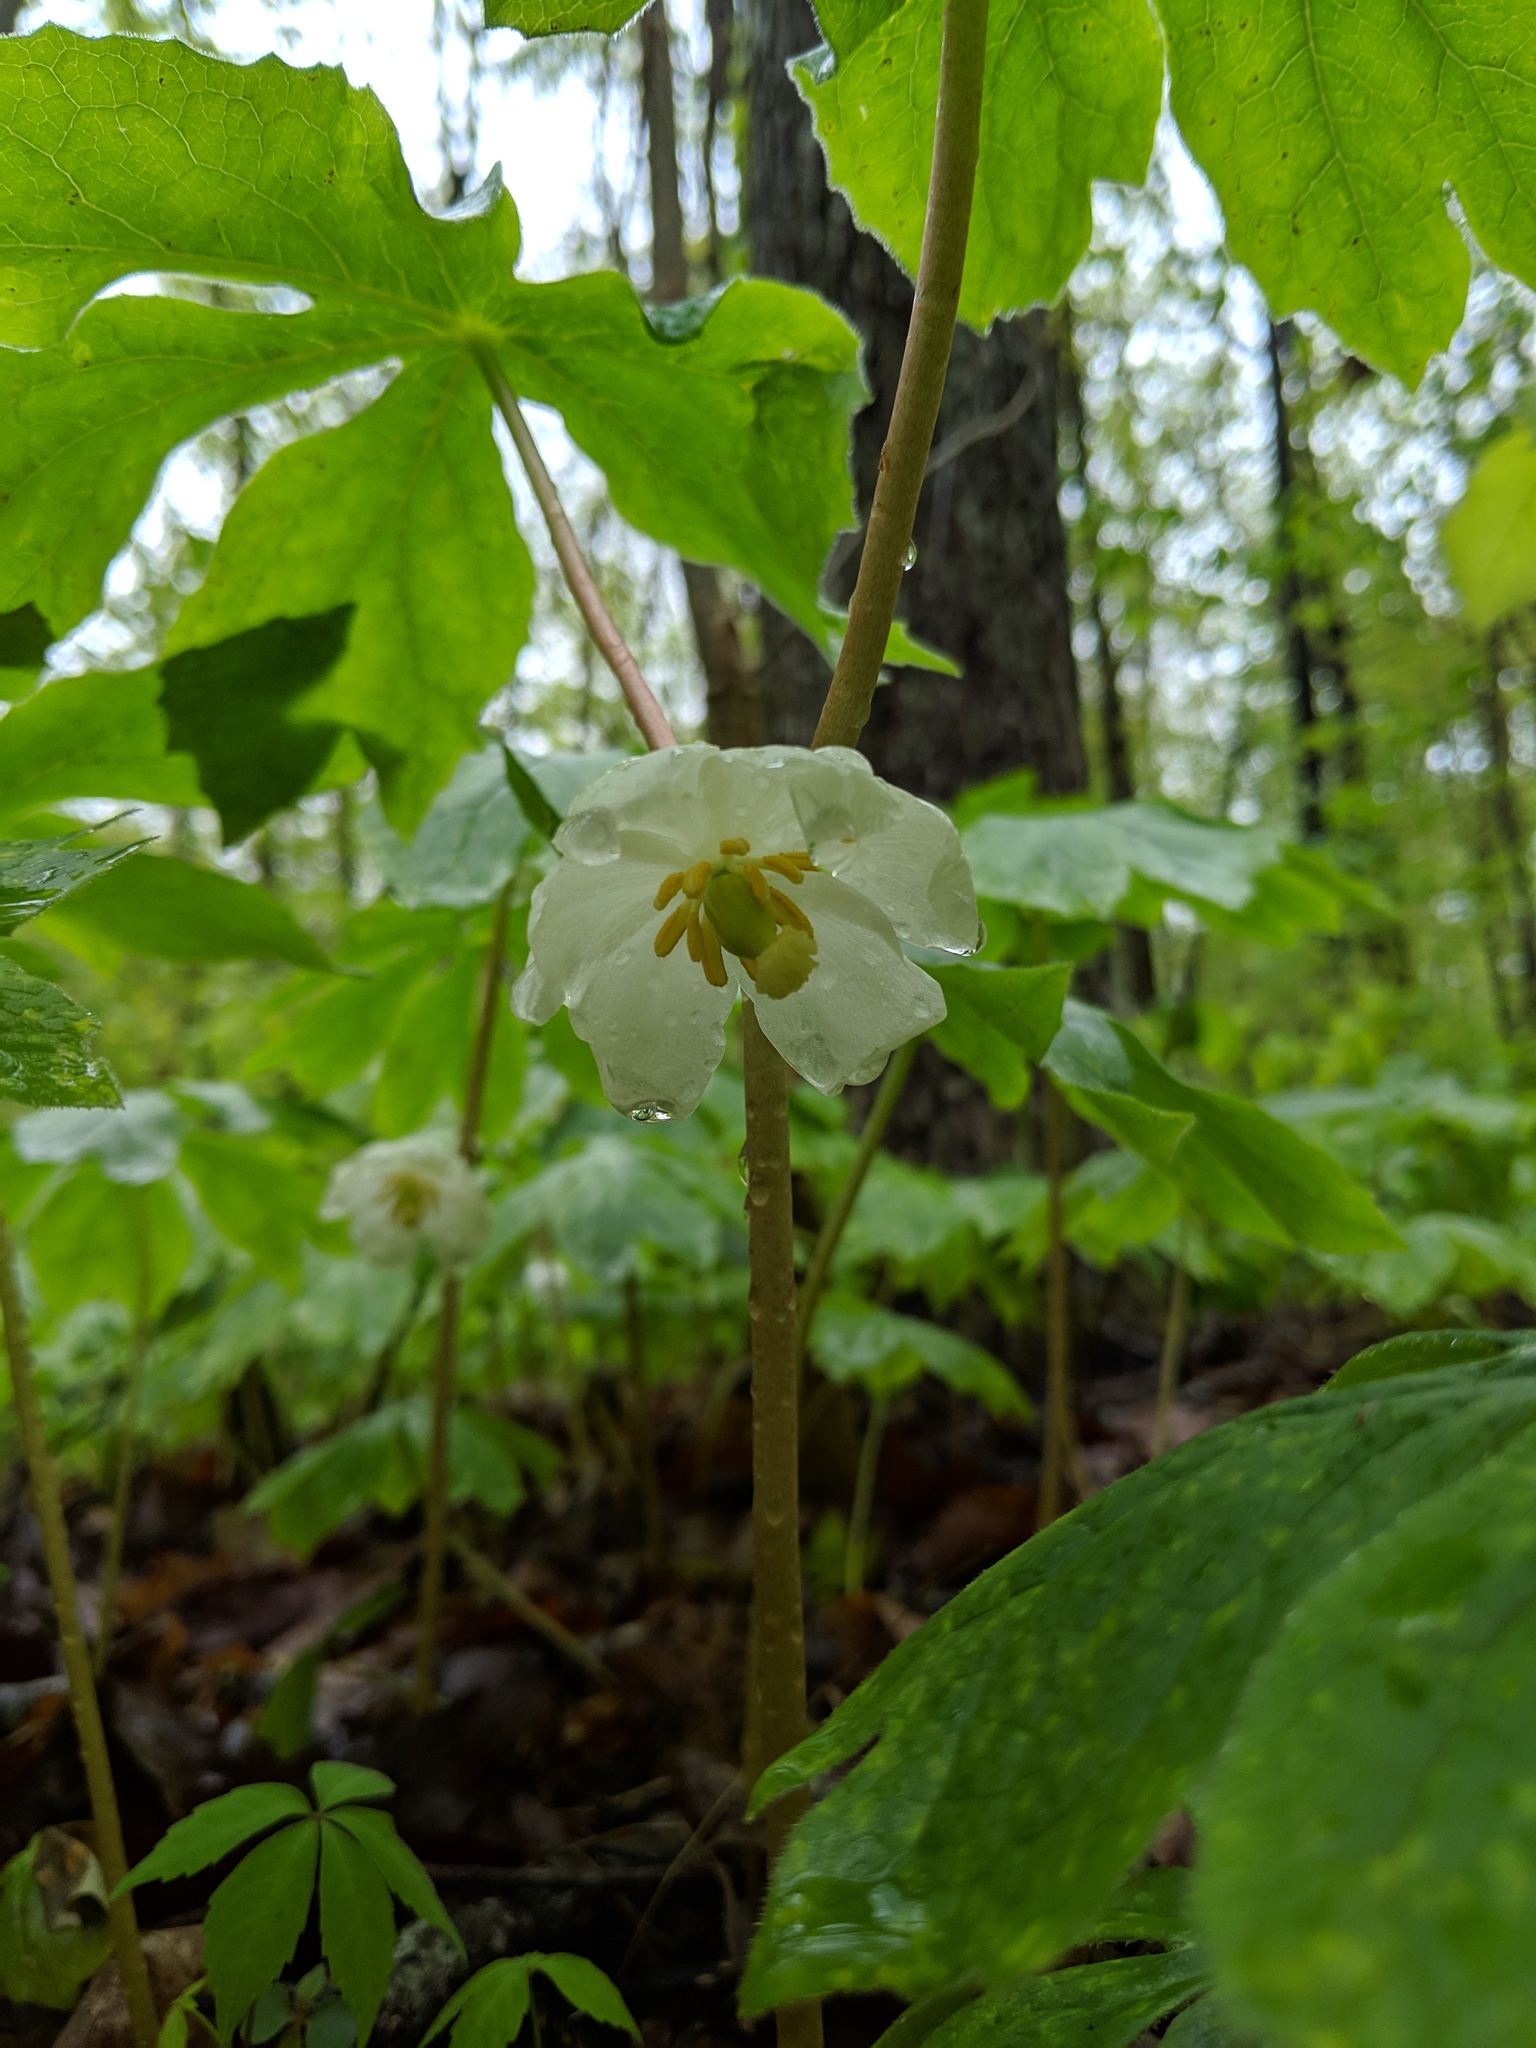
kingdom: Plantae
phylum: Tracheophyta
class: Magnoliopsida
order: Ranunculales
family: Berberidaceae
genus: Podophyllum
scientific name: Podophyllum peltatum
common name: Wild mandrake
